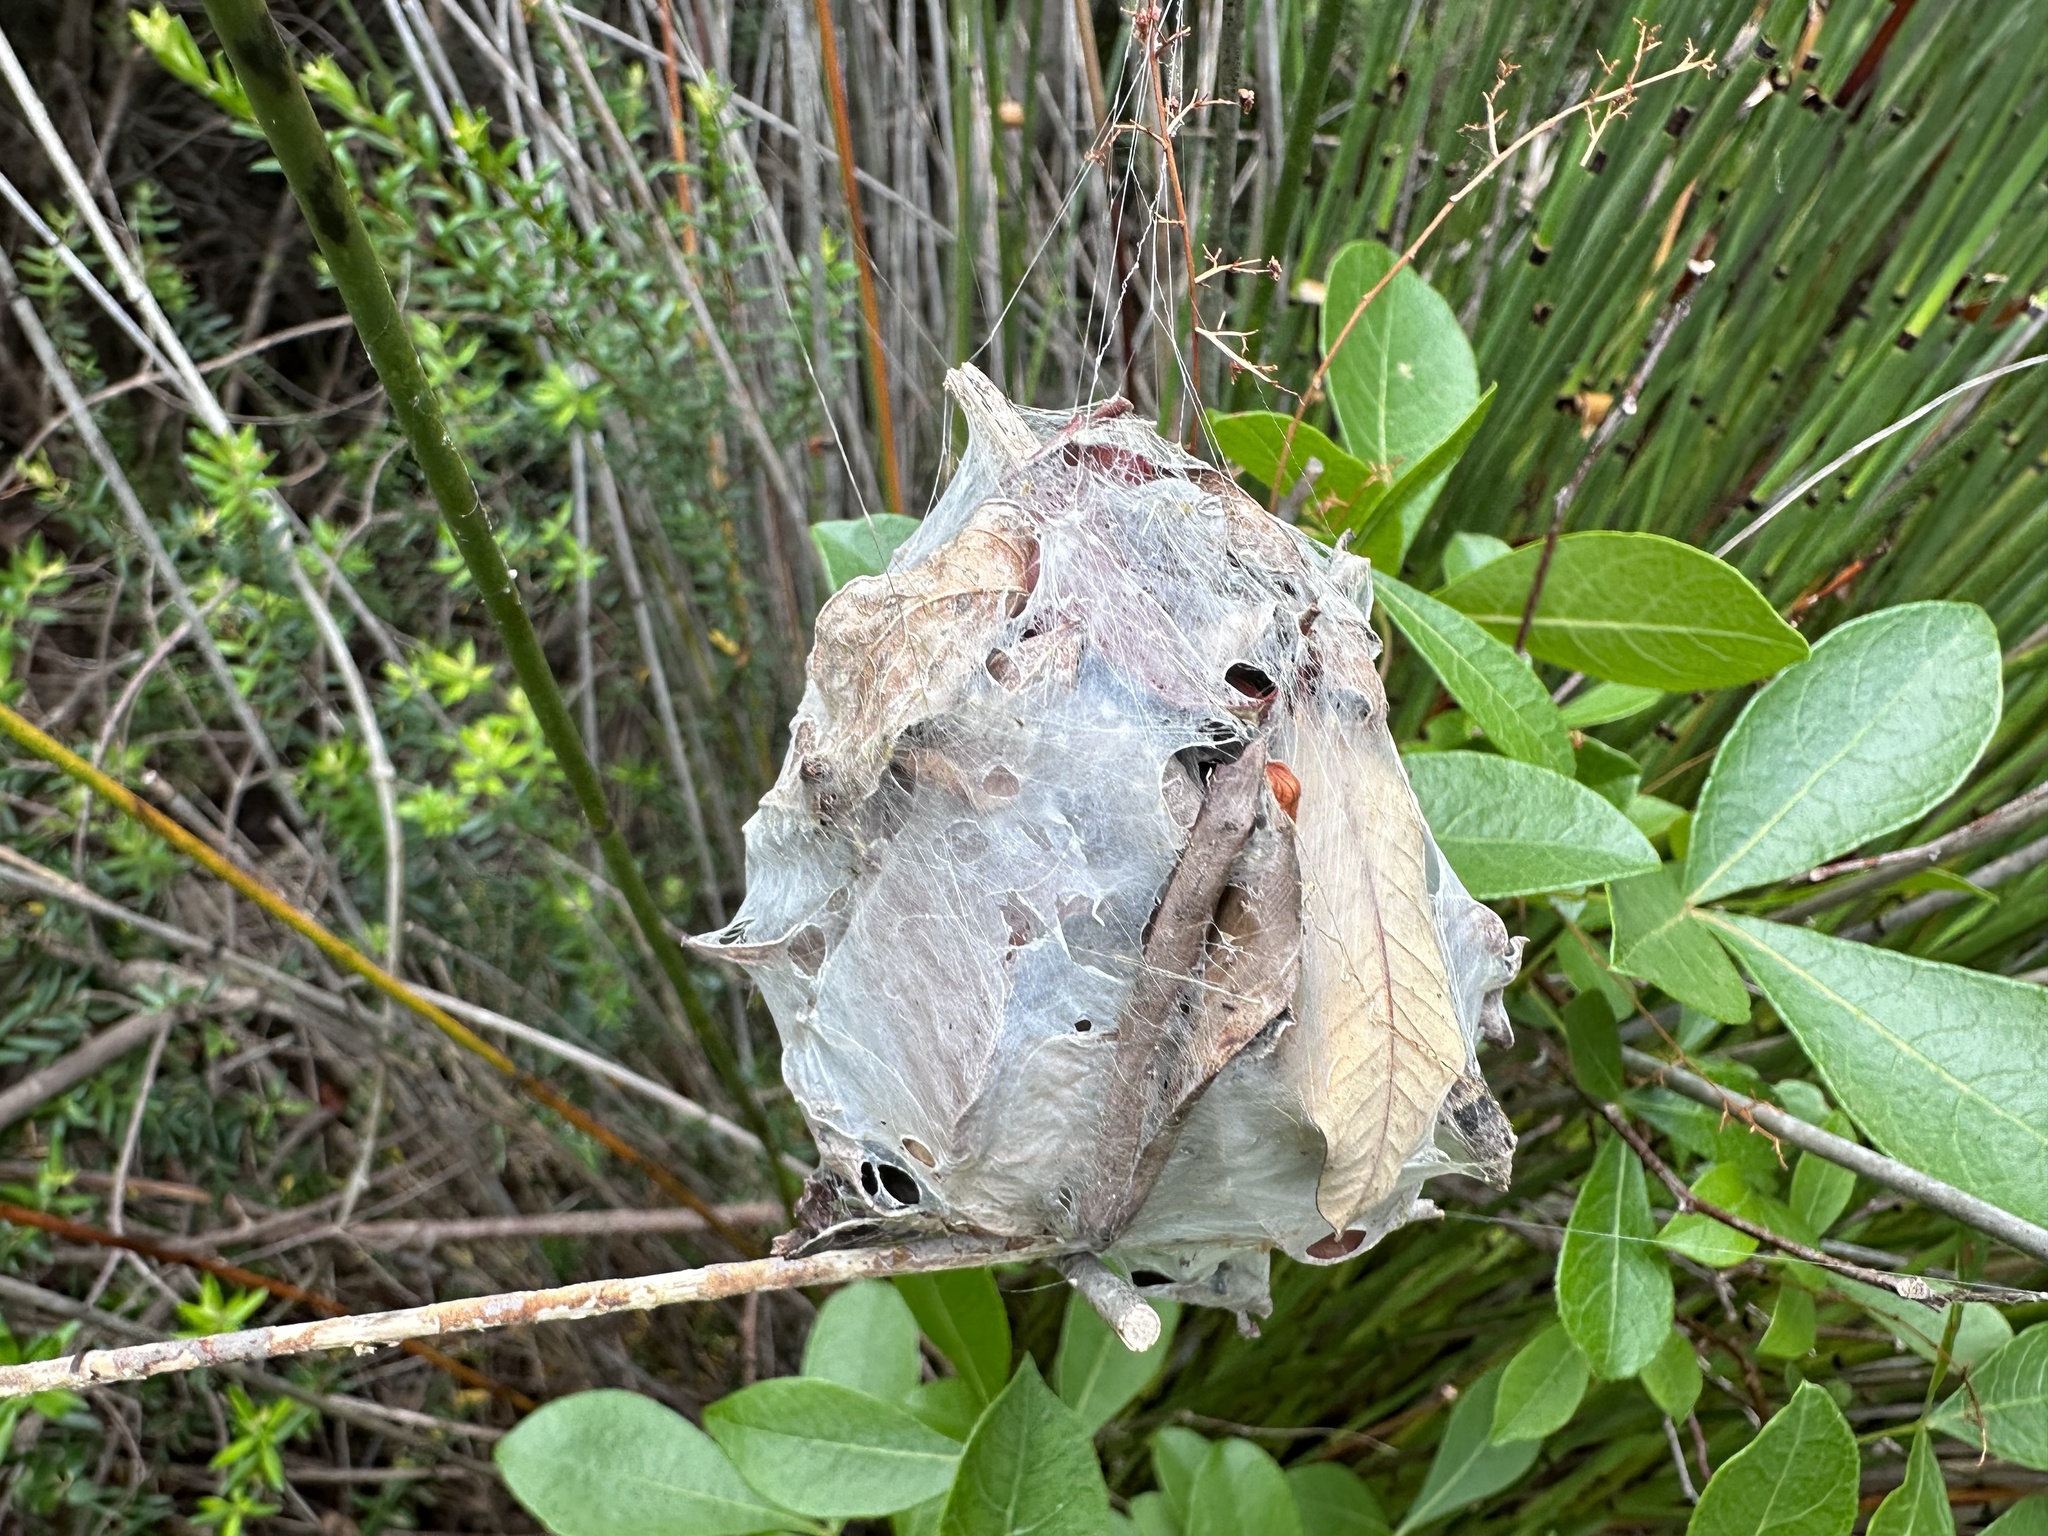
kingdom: Animalia
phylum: Arthropoda
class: Arachnida
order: Araneae
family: Sparassidae
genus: Palystes
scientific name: Palystes castaneus
